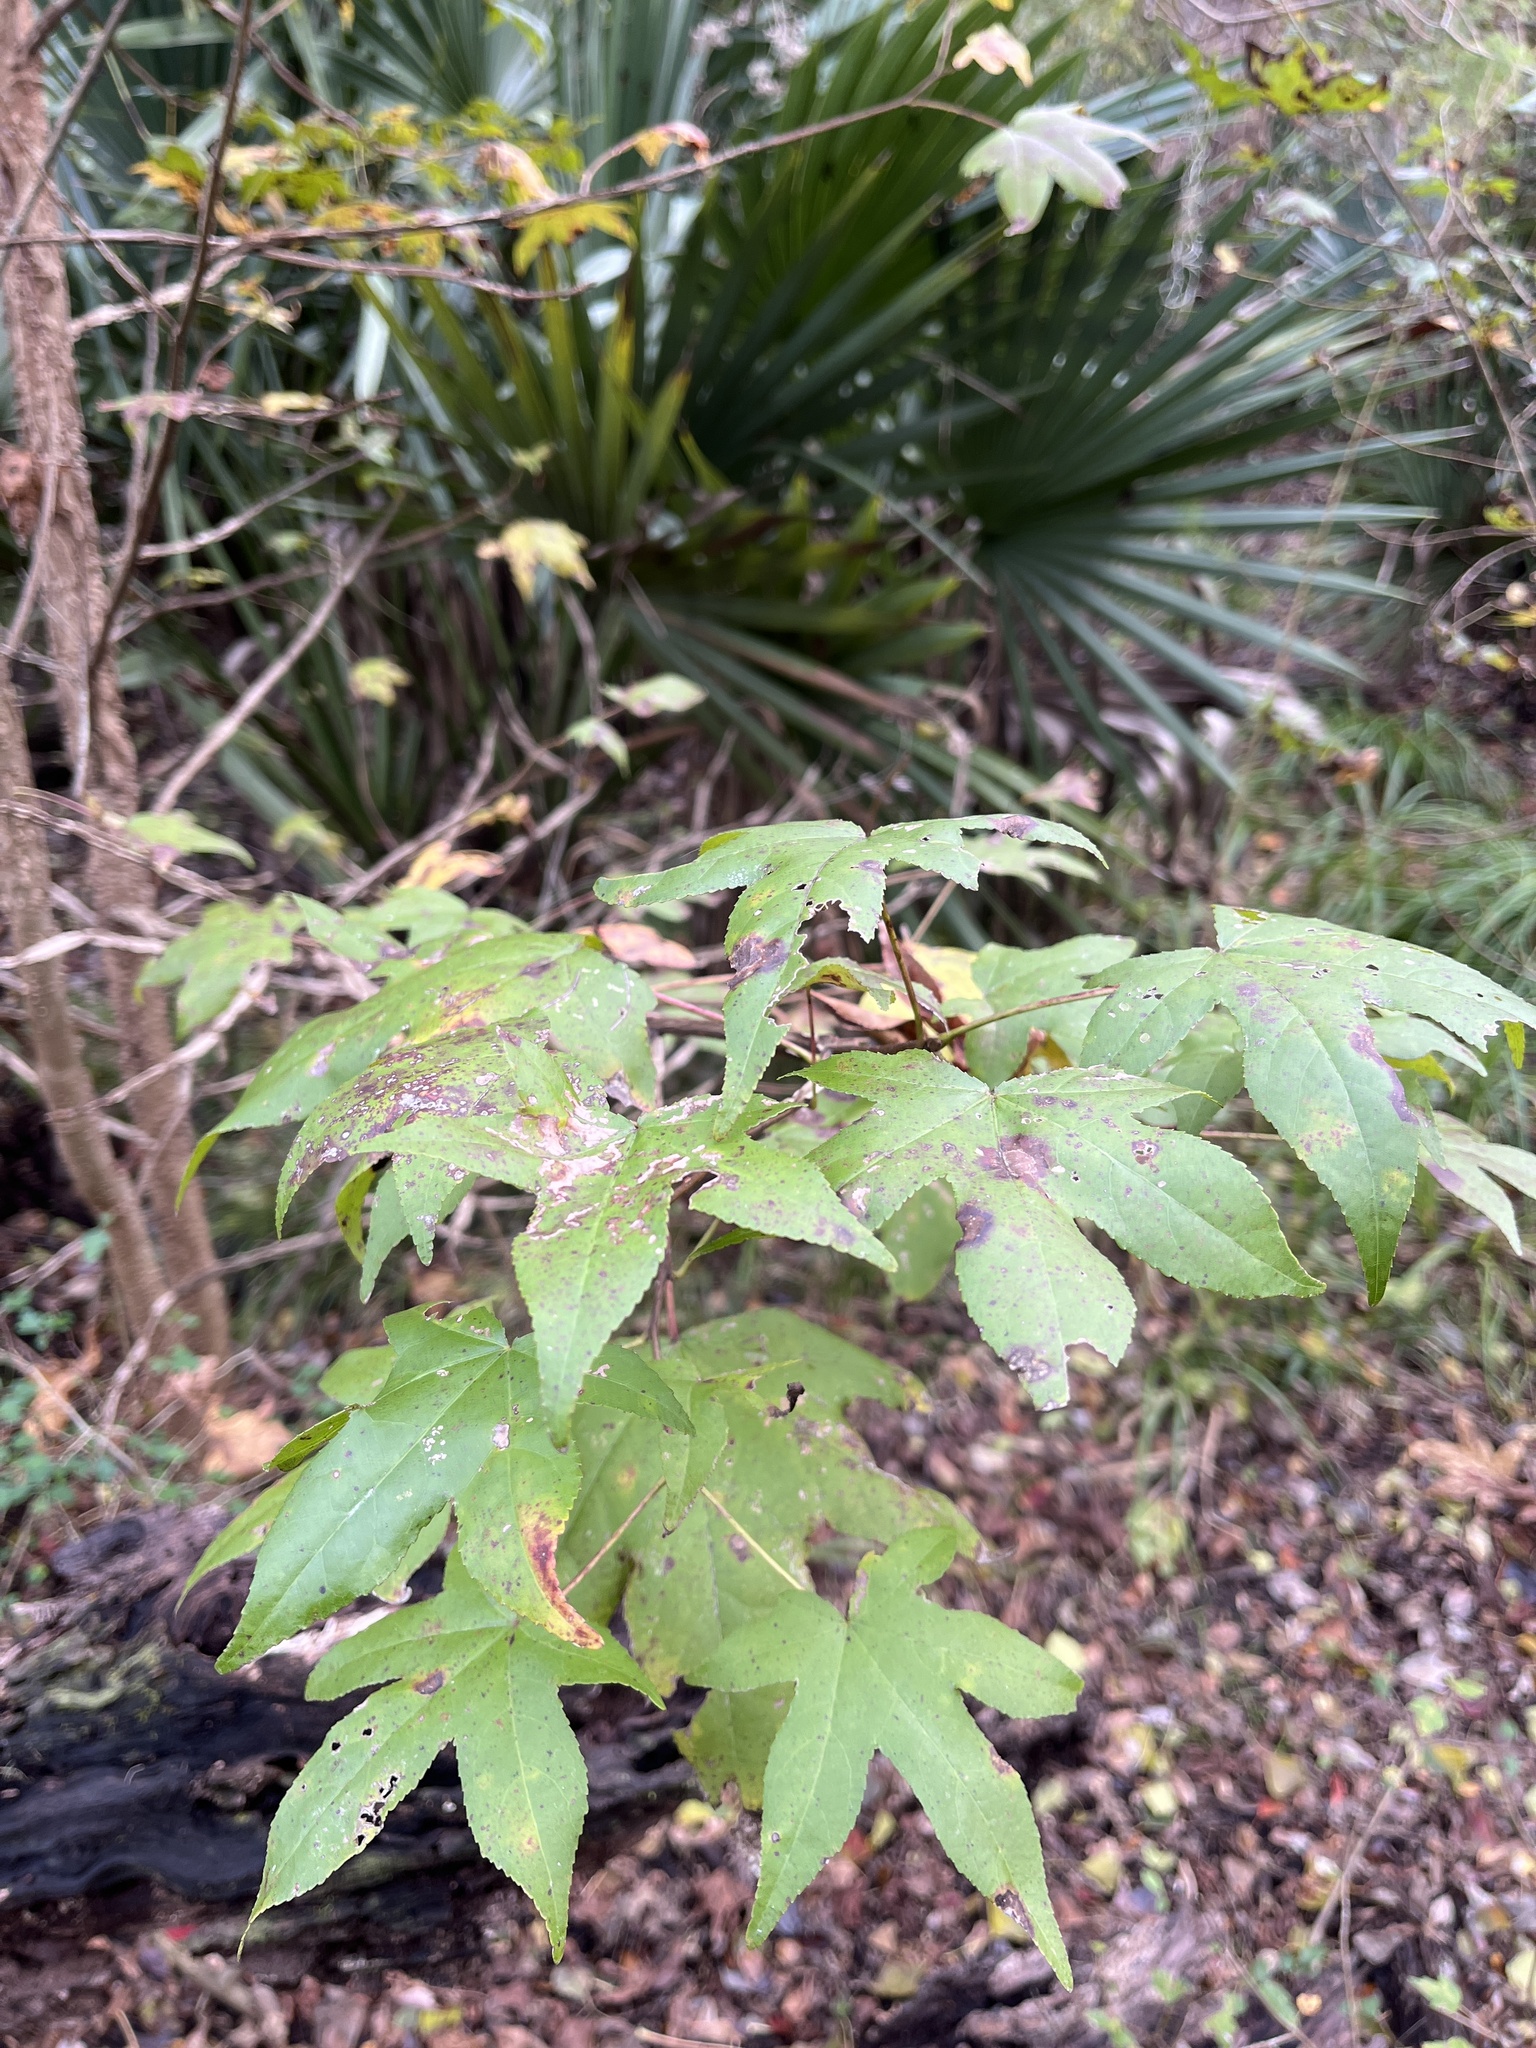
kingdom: Plantae
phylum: Tracheophyta
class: Magnoliopsida
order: Saxifragales
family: Altingiaceae
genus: Liquidambar
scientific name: Liquidambar styraciflua
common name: Sweet gum
